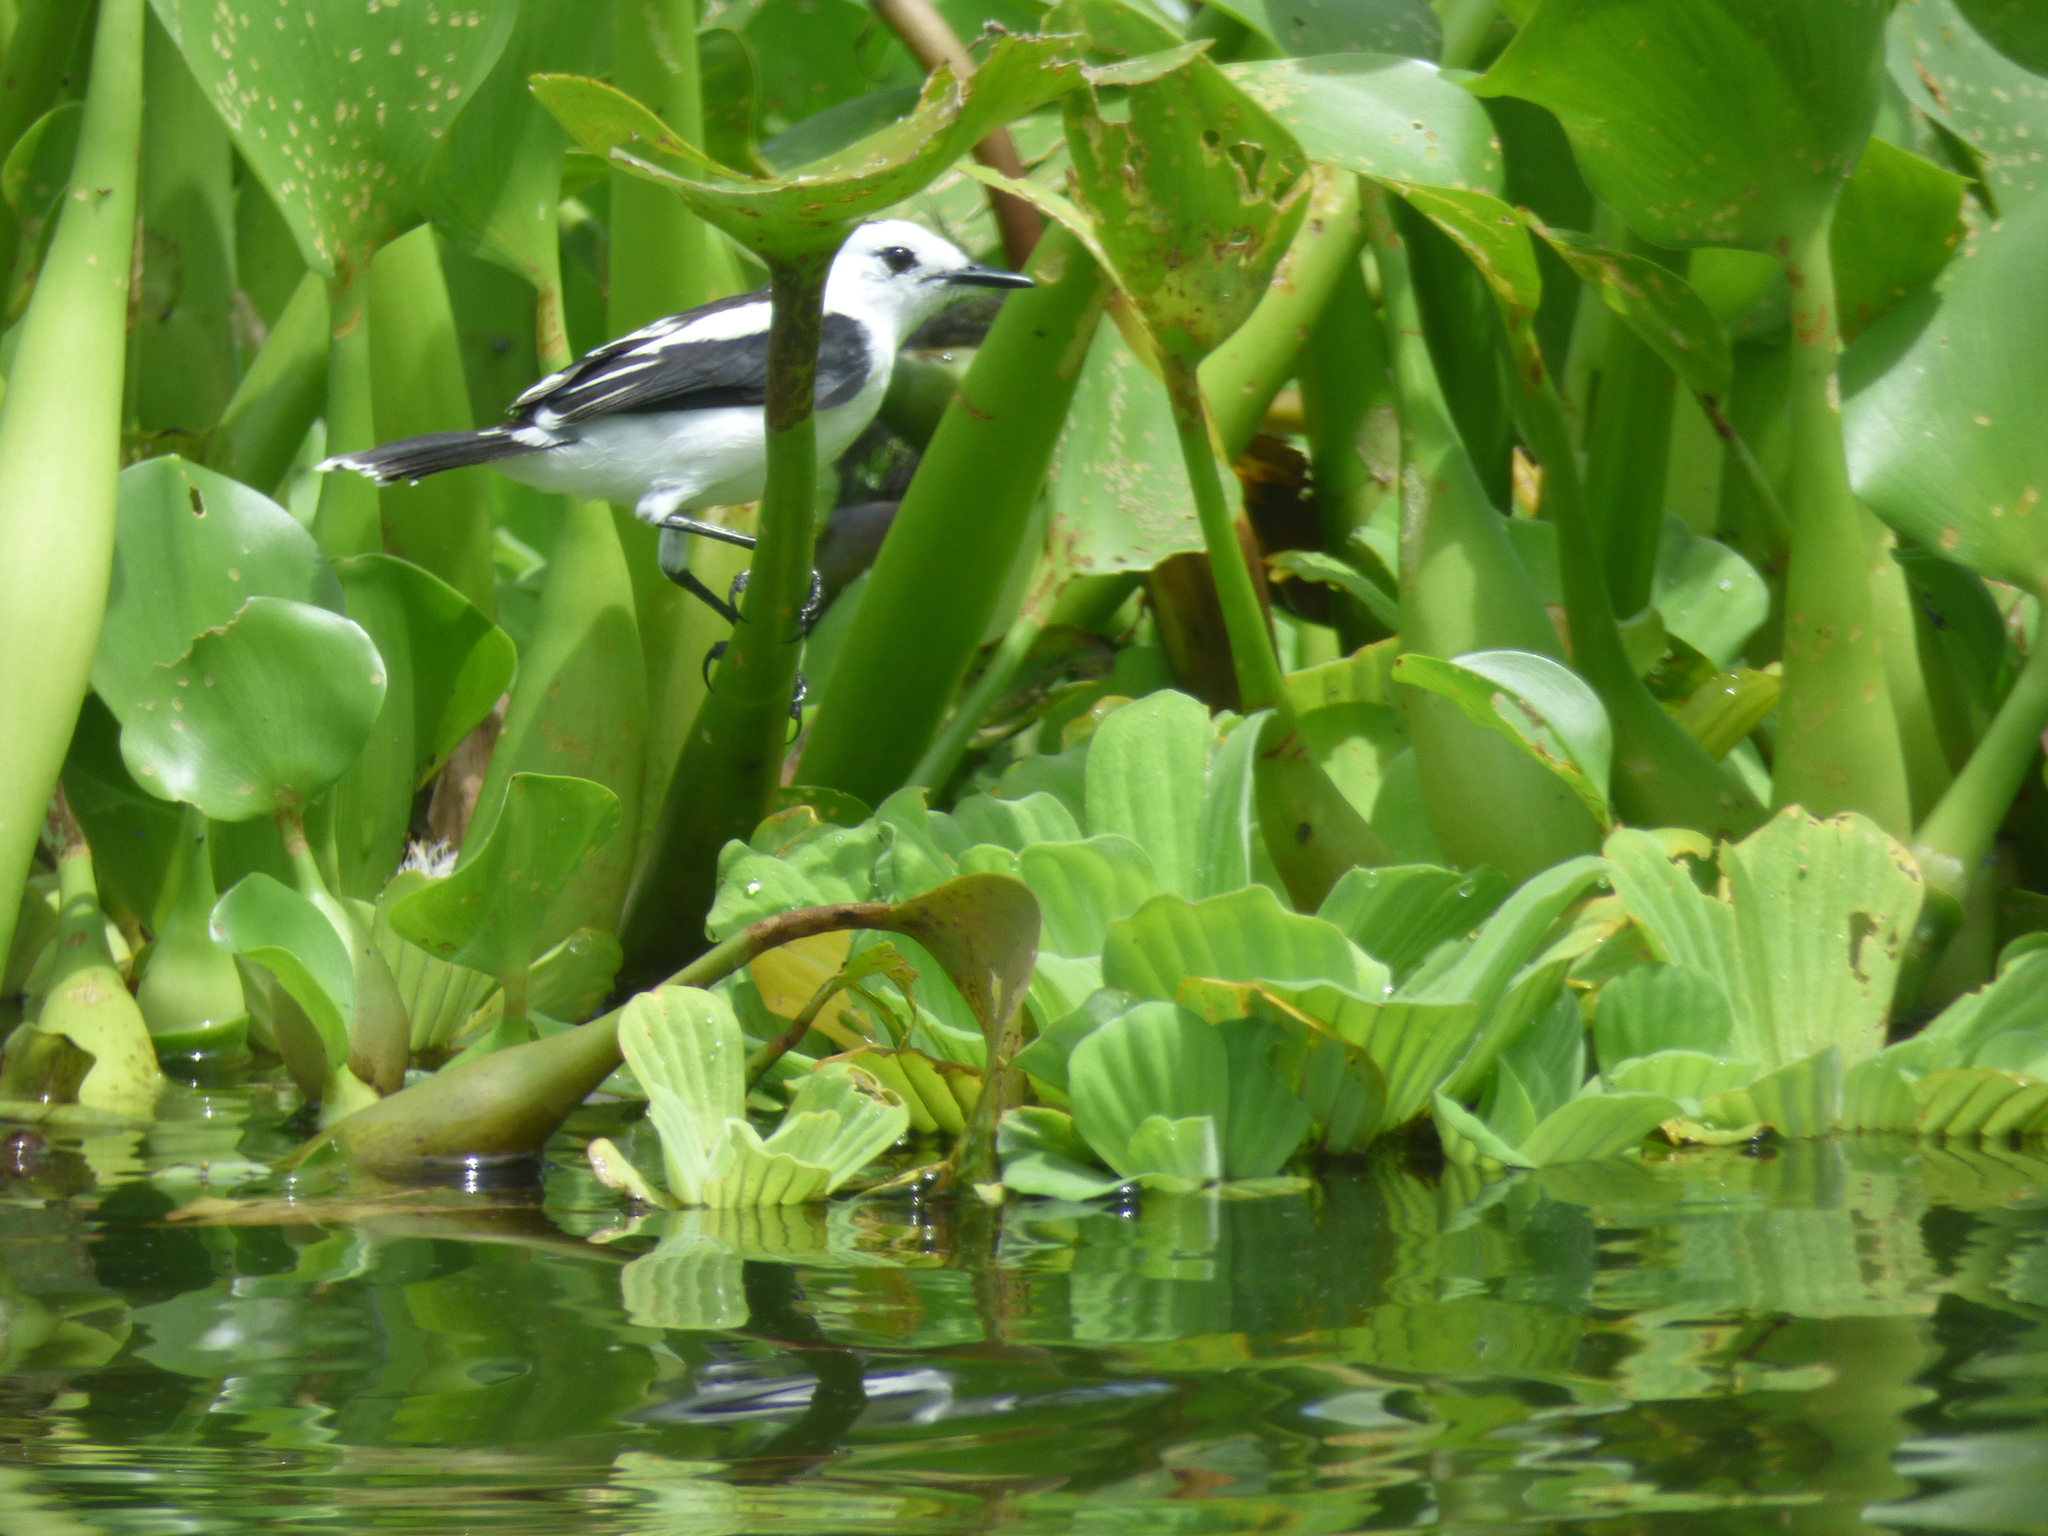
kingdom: Animalia
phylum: Chordata
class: Aves
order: Passeriformes
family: Tyrannidae
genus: Fluvicola
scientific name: Fluvicola pica
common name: Pied water-tyrant
